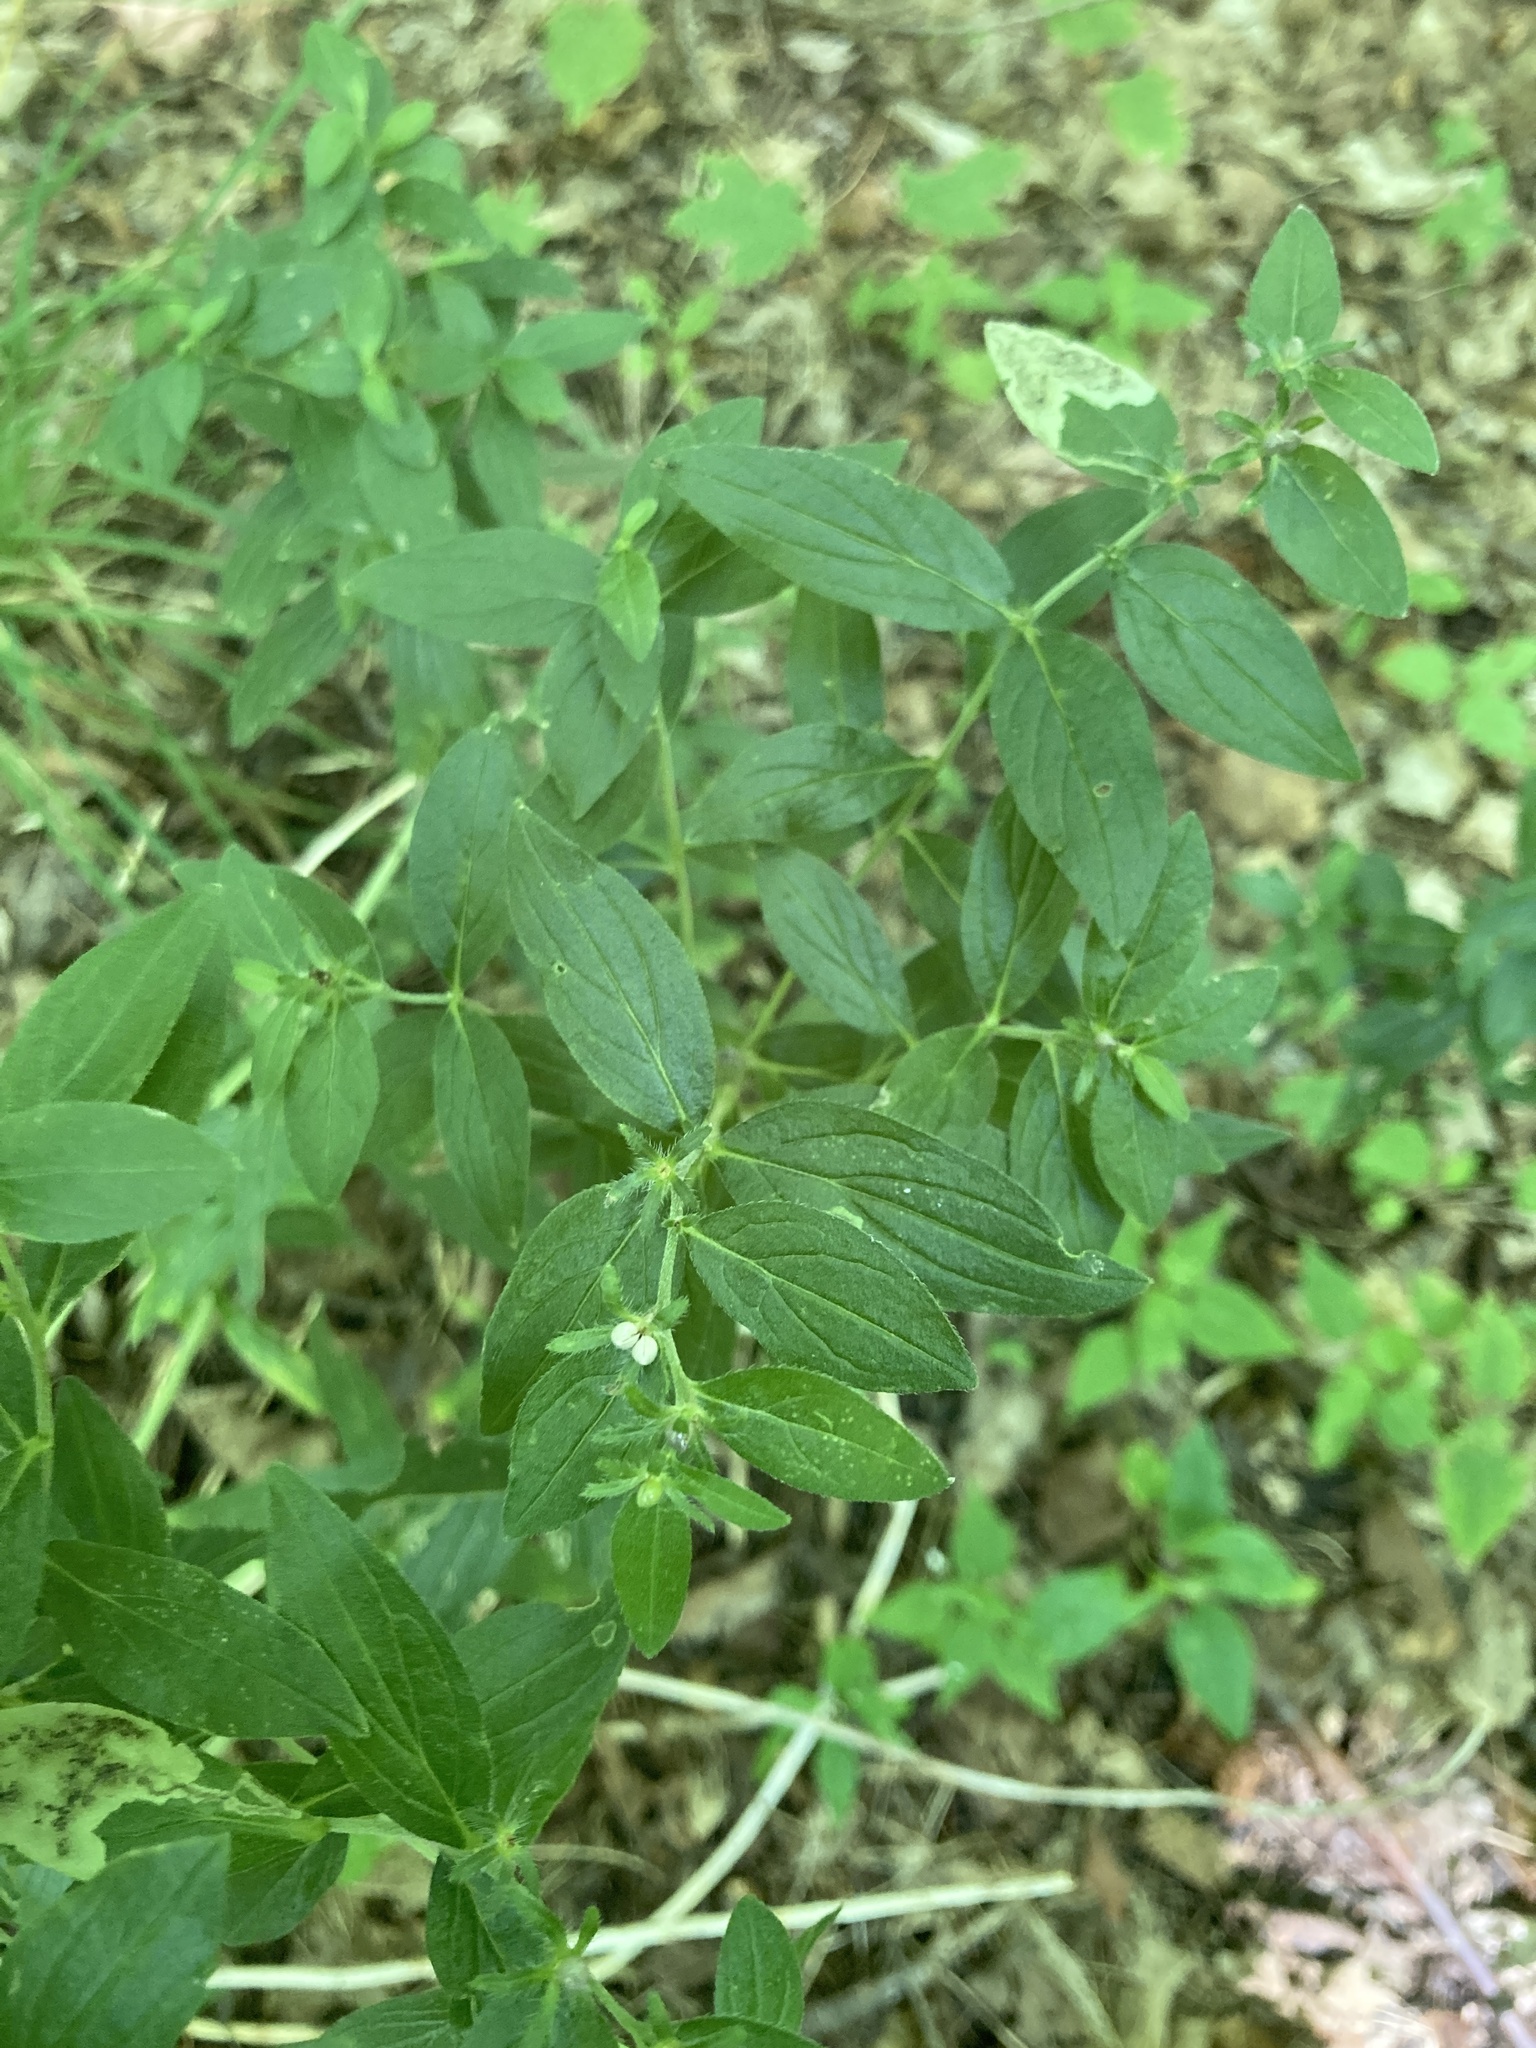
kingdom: Plantae
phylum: Tracheophyta
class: Magnoliopsida
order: Boraginales
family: Boraginaceae
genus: Lithospermum
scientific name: Lithospermum officinale
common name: Common gromwell
